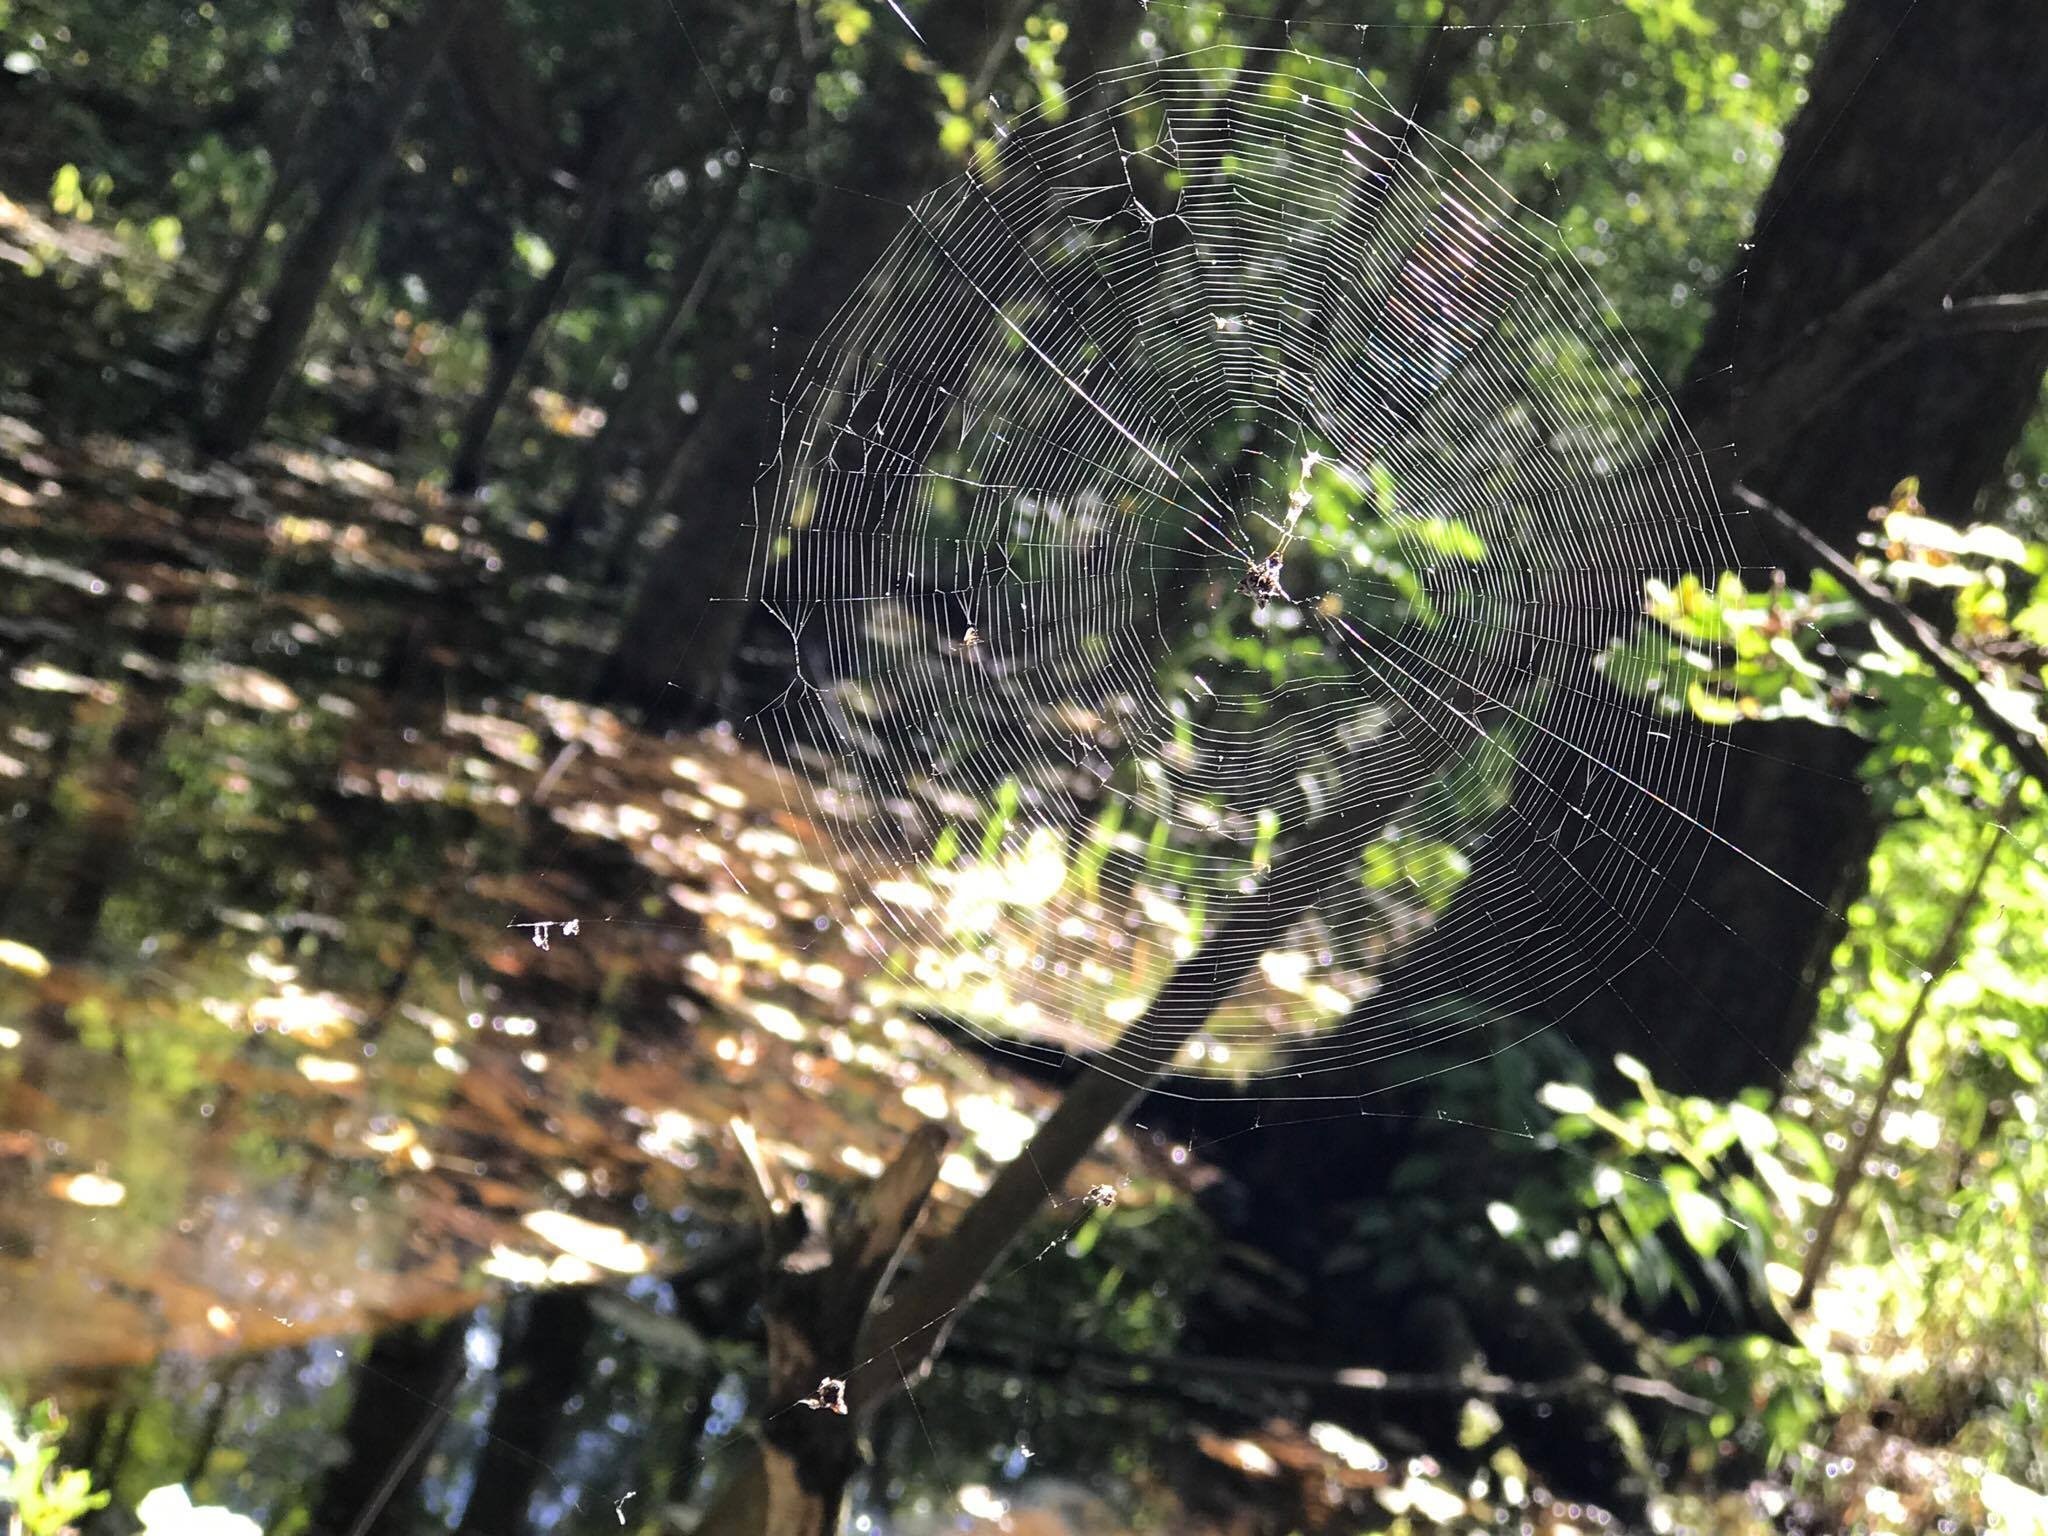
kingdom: Animalia
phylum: Arthropoda
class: Arachnida
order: Araneae
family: Araneidae
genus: Micrathena
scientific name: Micrathena gracilis
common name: Orb weavers
